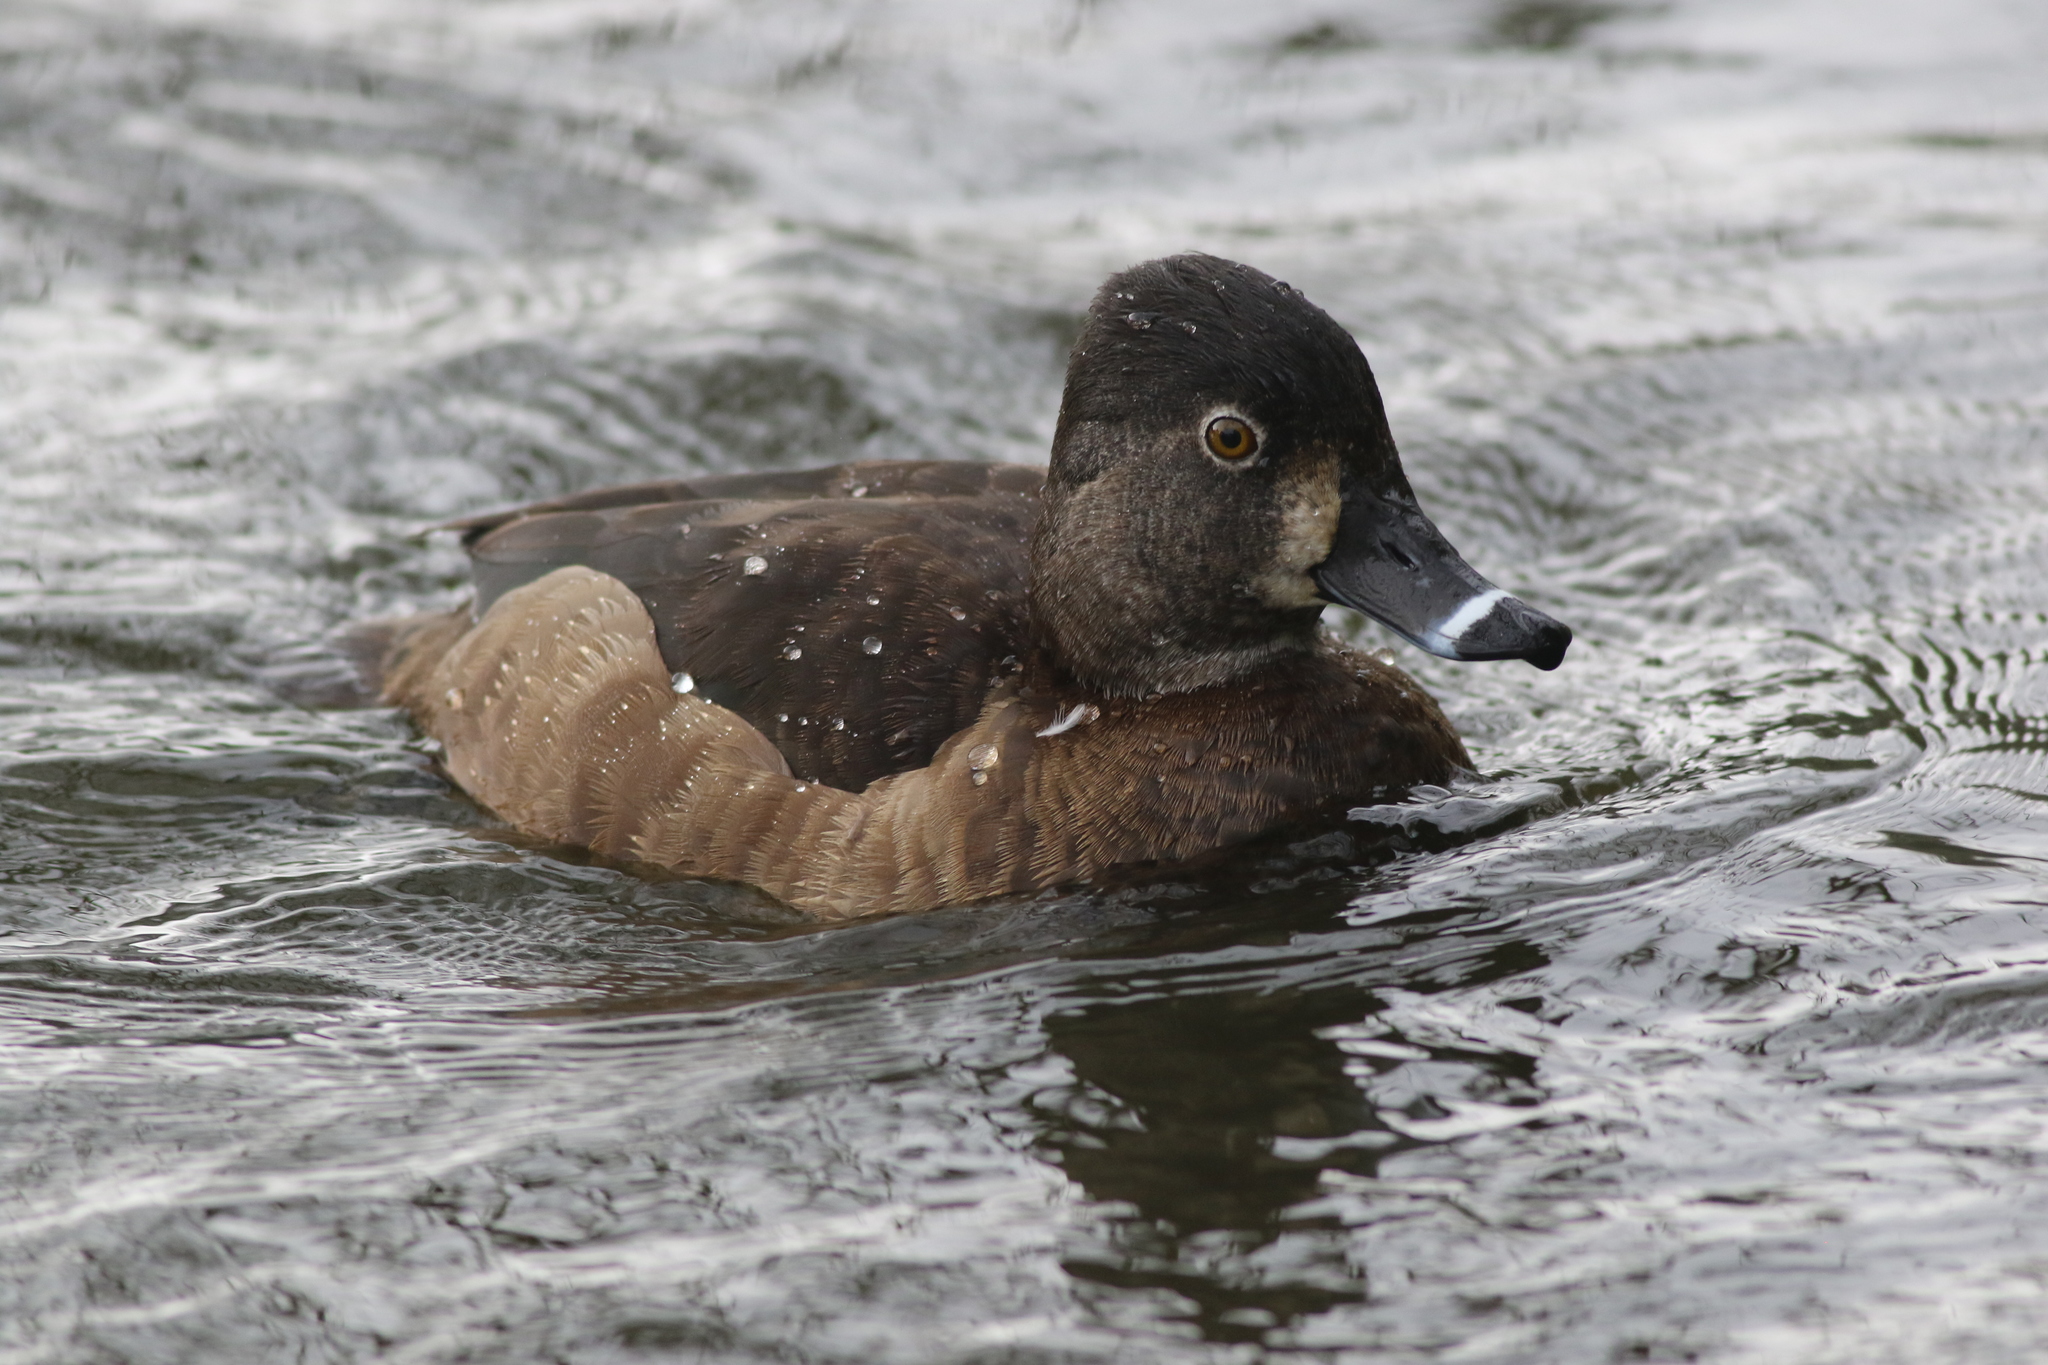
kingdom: Animalia
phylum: Chordata
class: Aves
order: Anseriformes
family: Anatidae
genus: Aythya
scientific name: Aythya collaris
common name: Ring-necked duck
